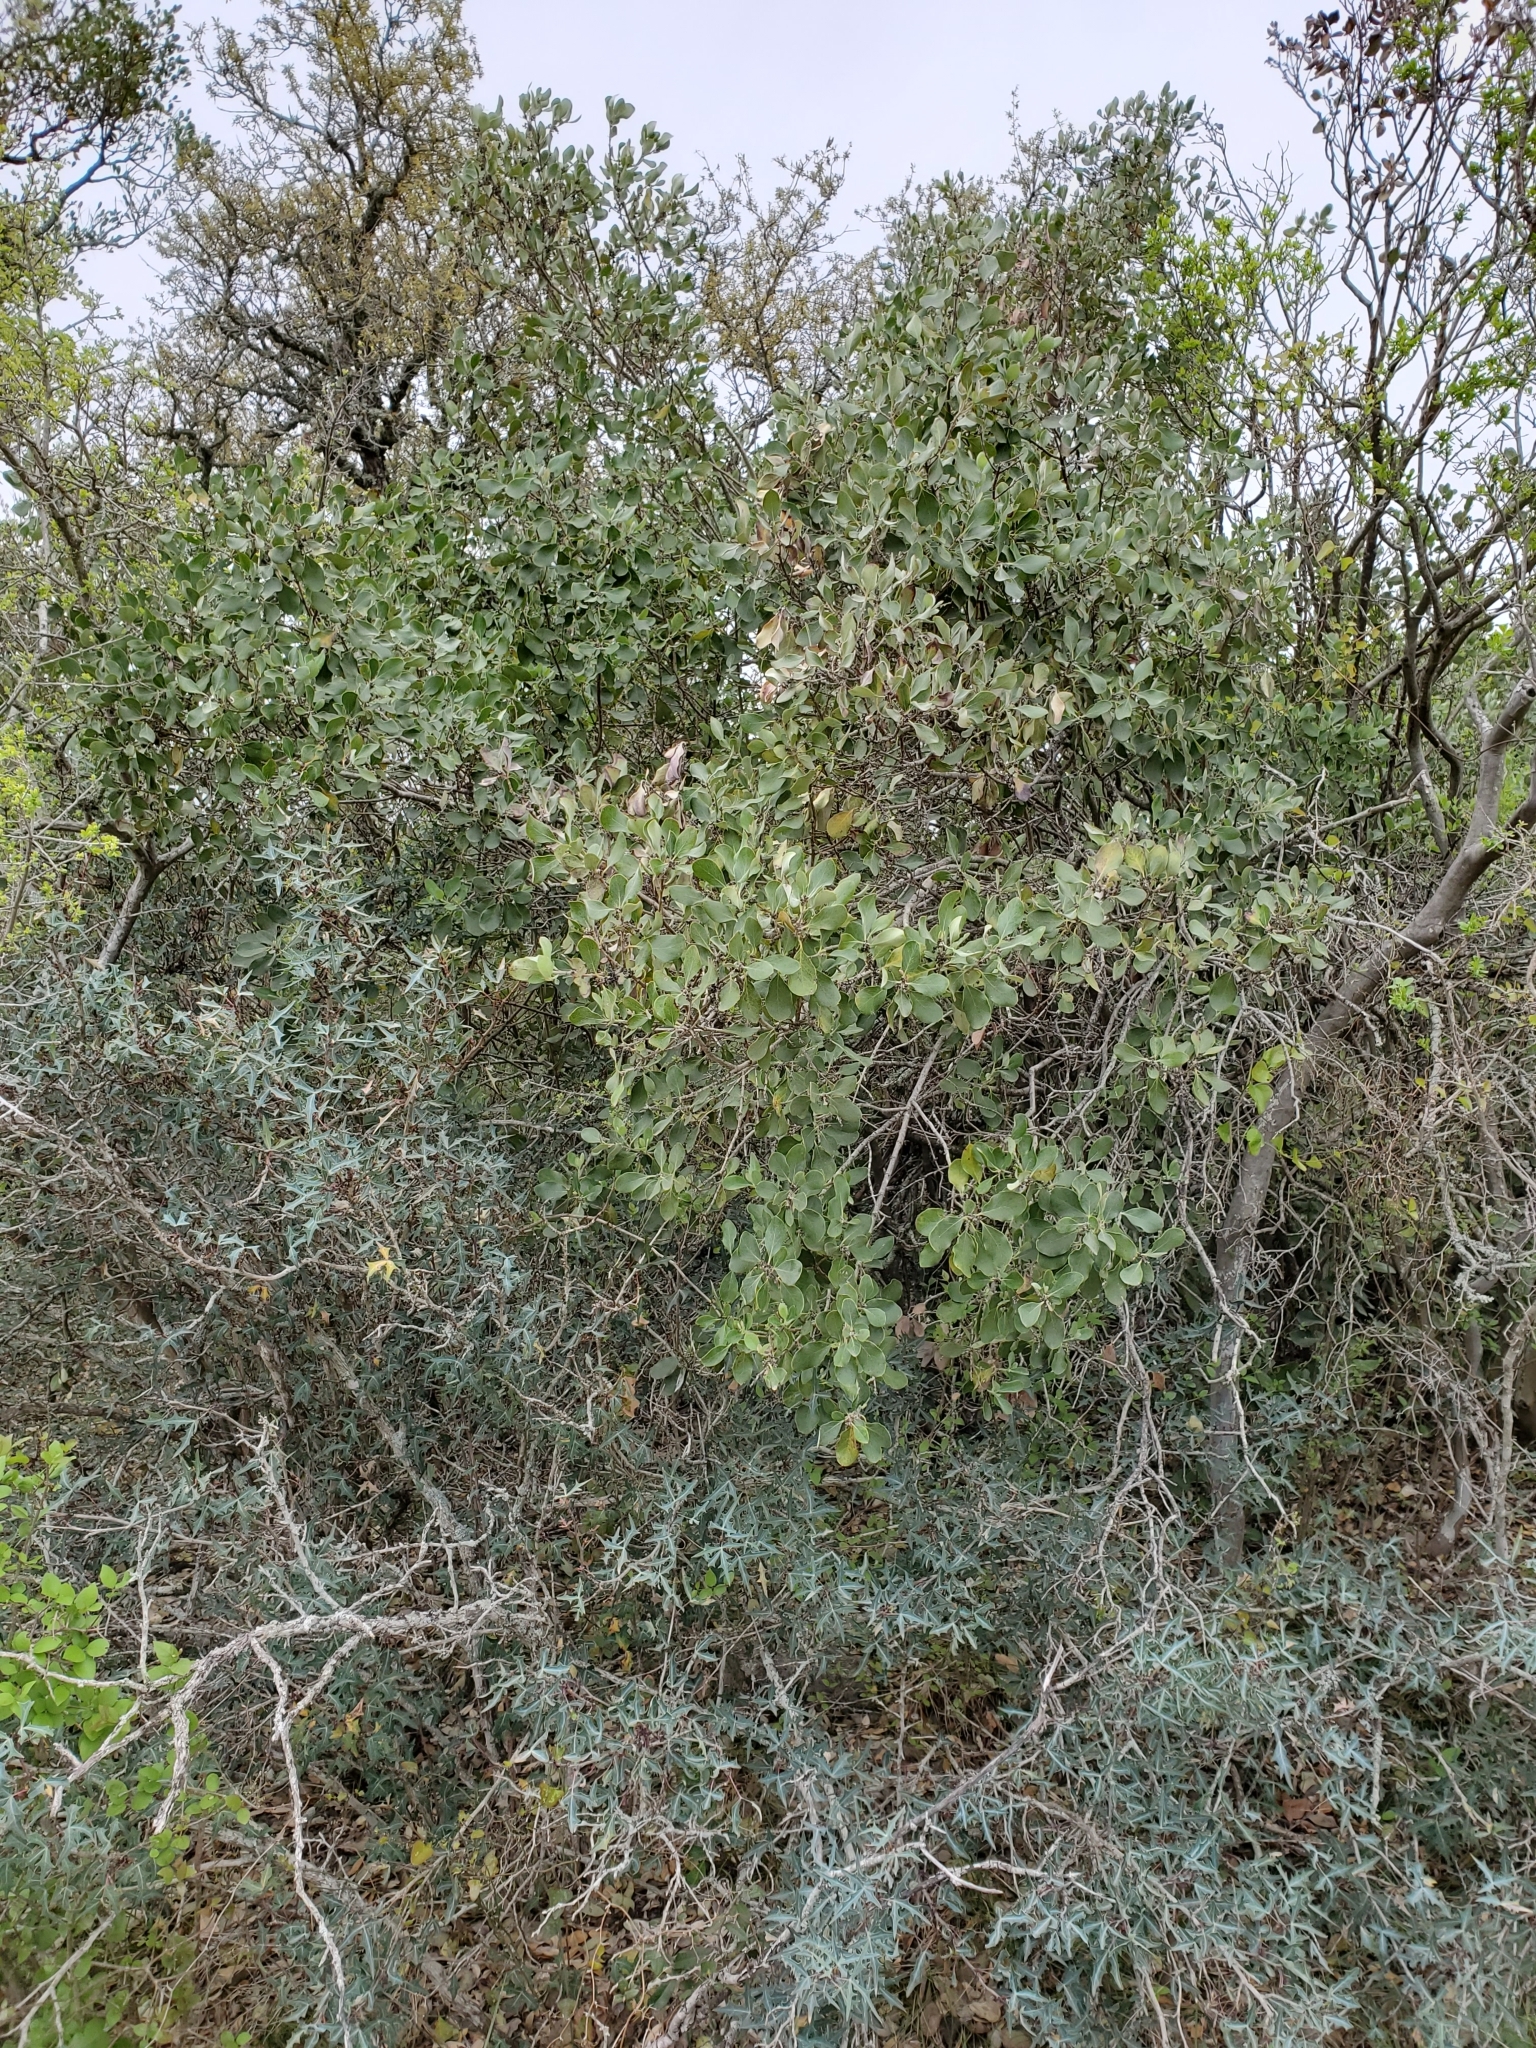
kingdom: Plantae
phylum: Tracheophyta
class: Magnoliopsida
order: Garryales
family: Garryaceae
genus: Garrya
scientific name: Garrya lindheimeri
